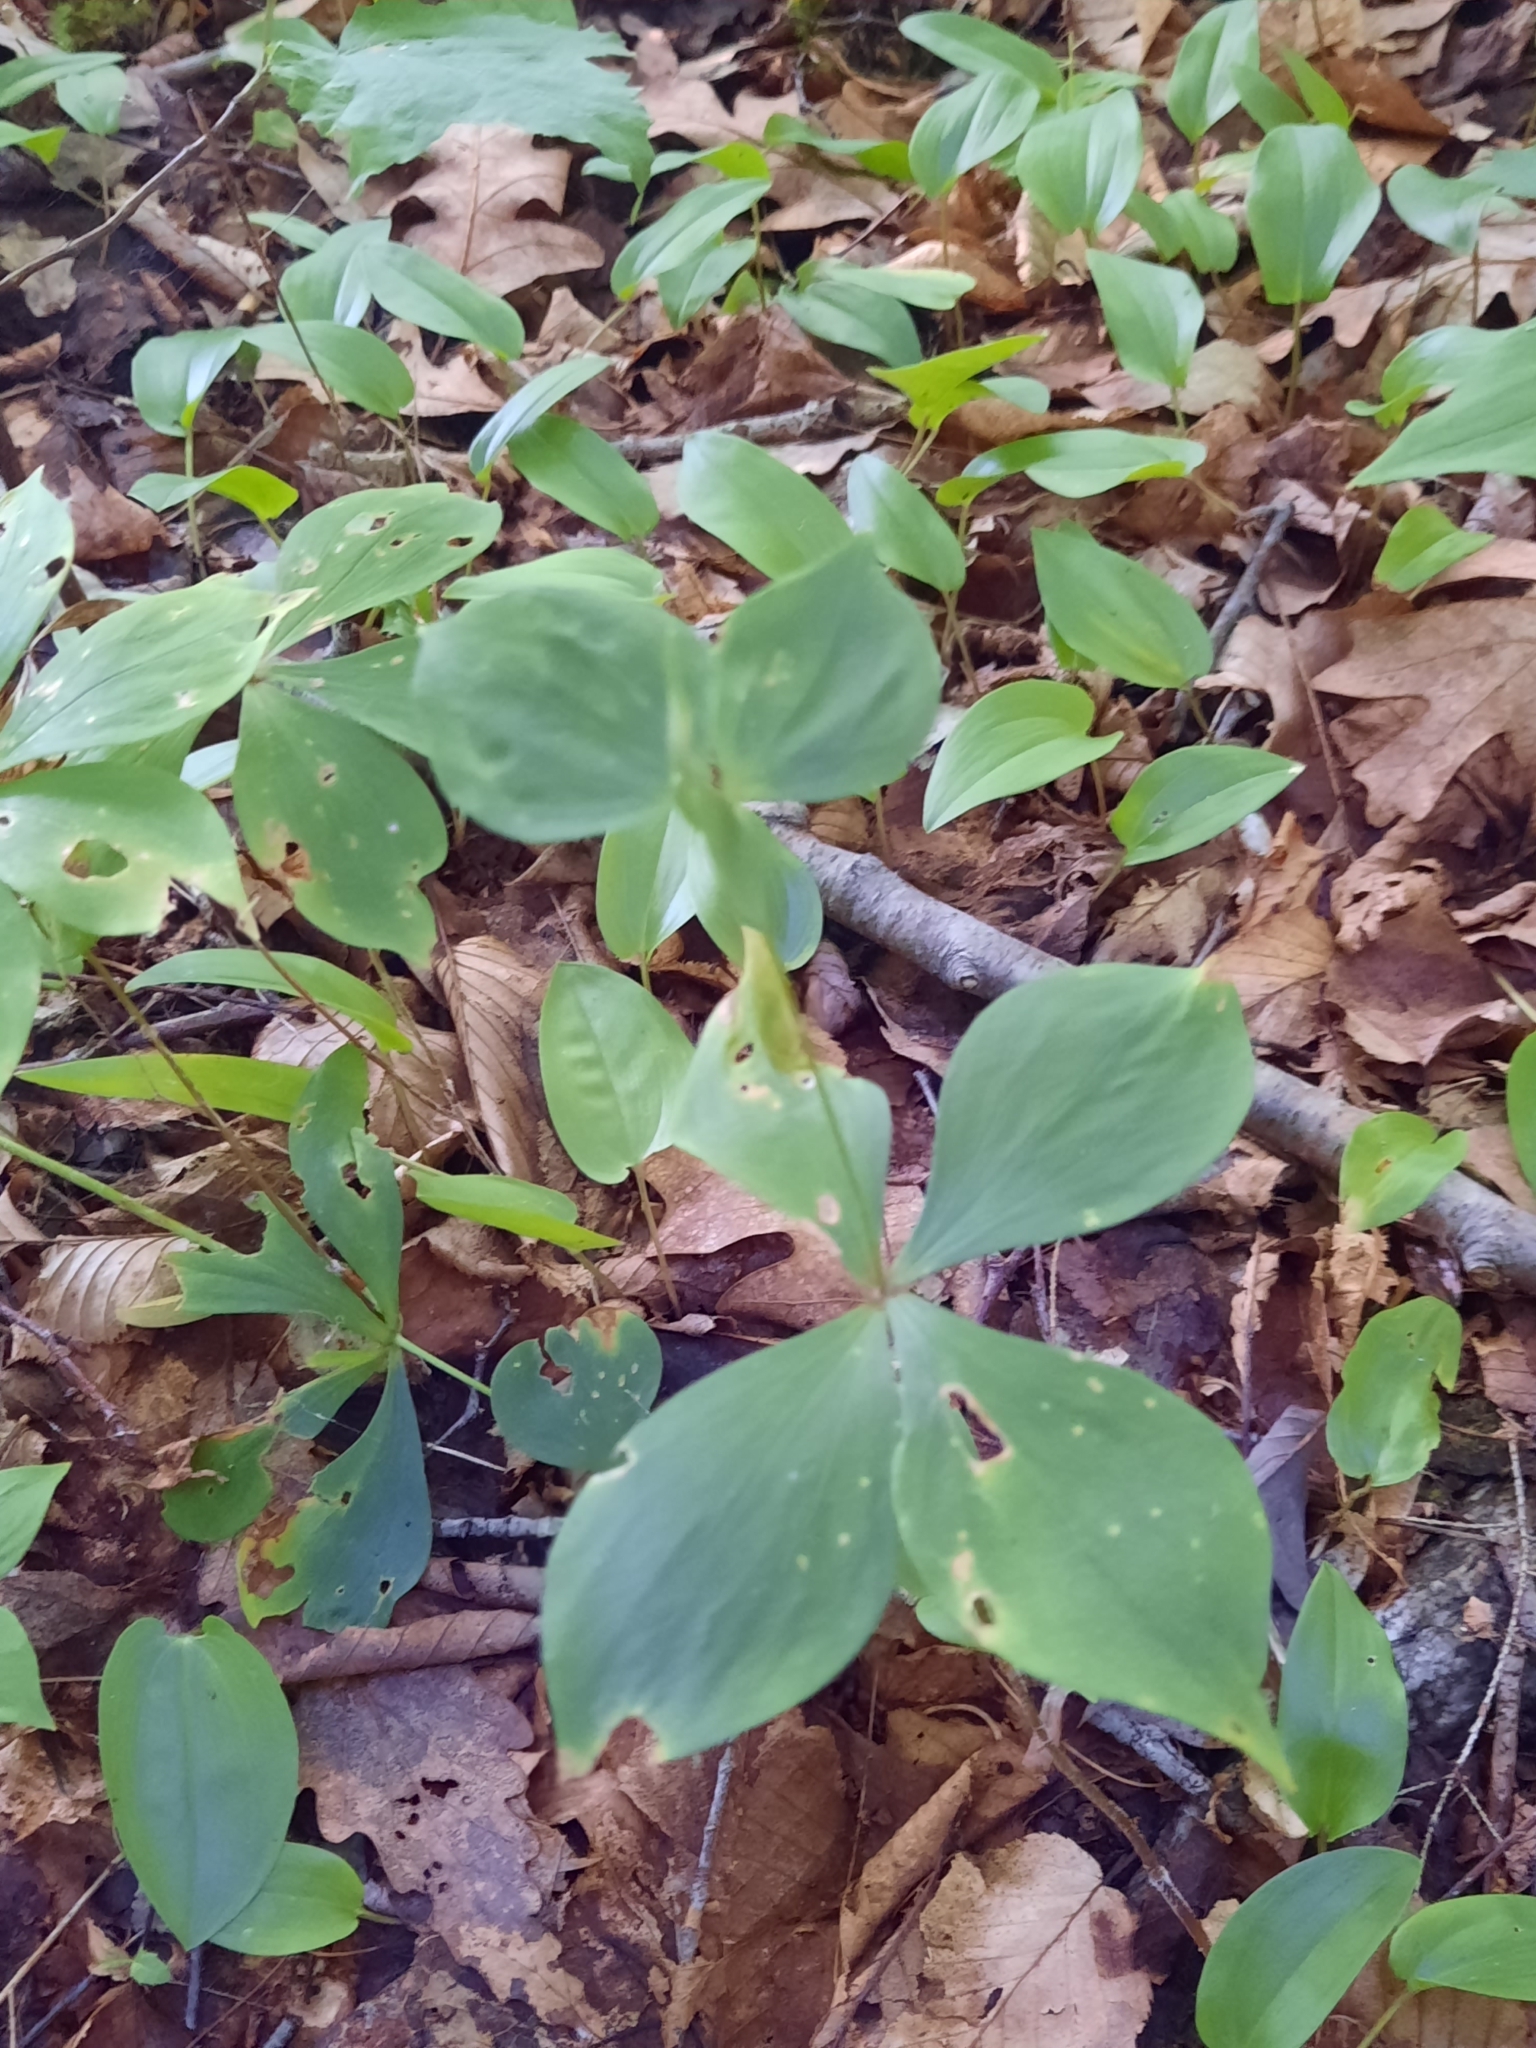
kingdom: Plantae
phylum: Tracheophyta
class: Liliopsida
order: Liliales
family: Liliaceae
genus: Medeola
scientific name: Medeola virginiana
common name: Indian cucumber-root
